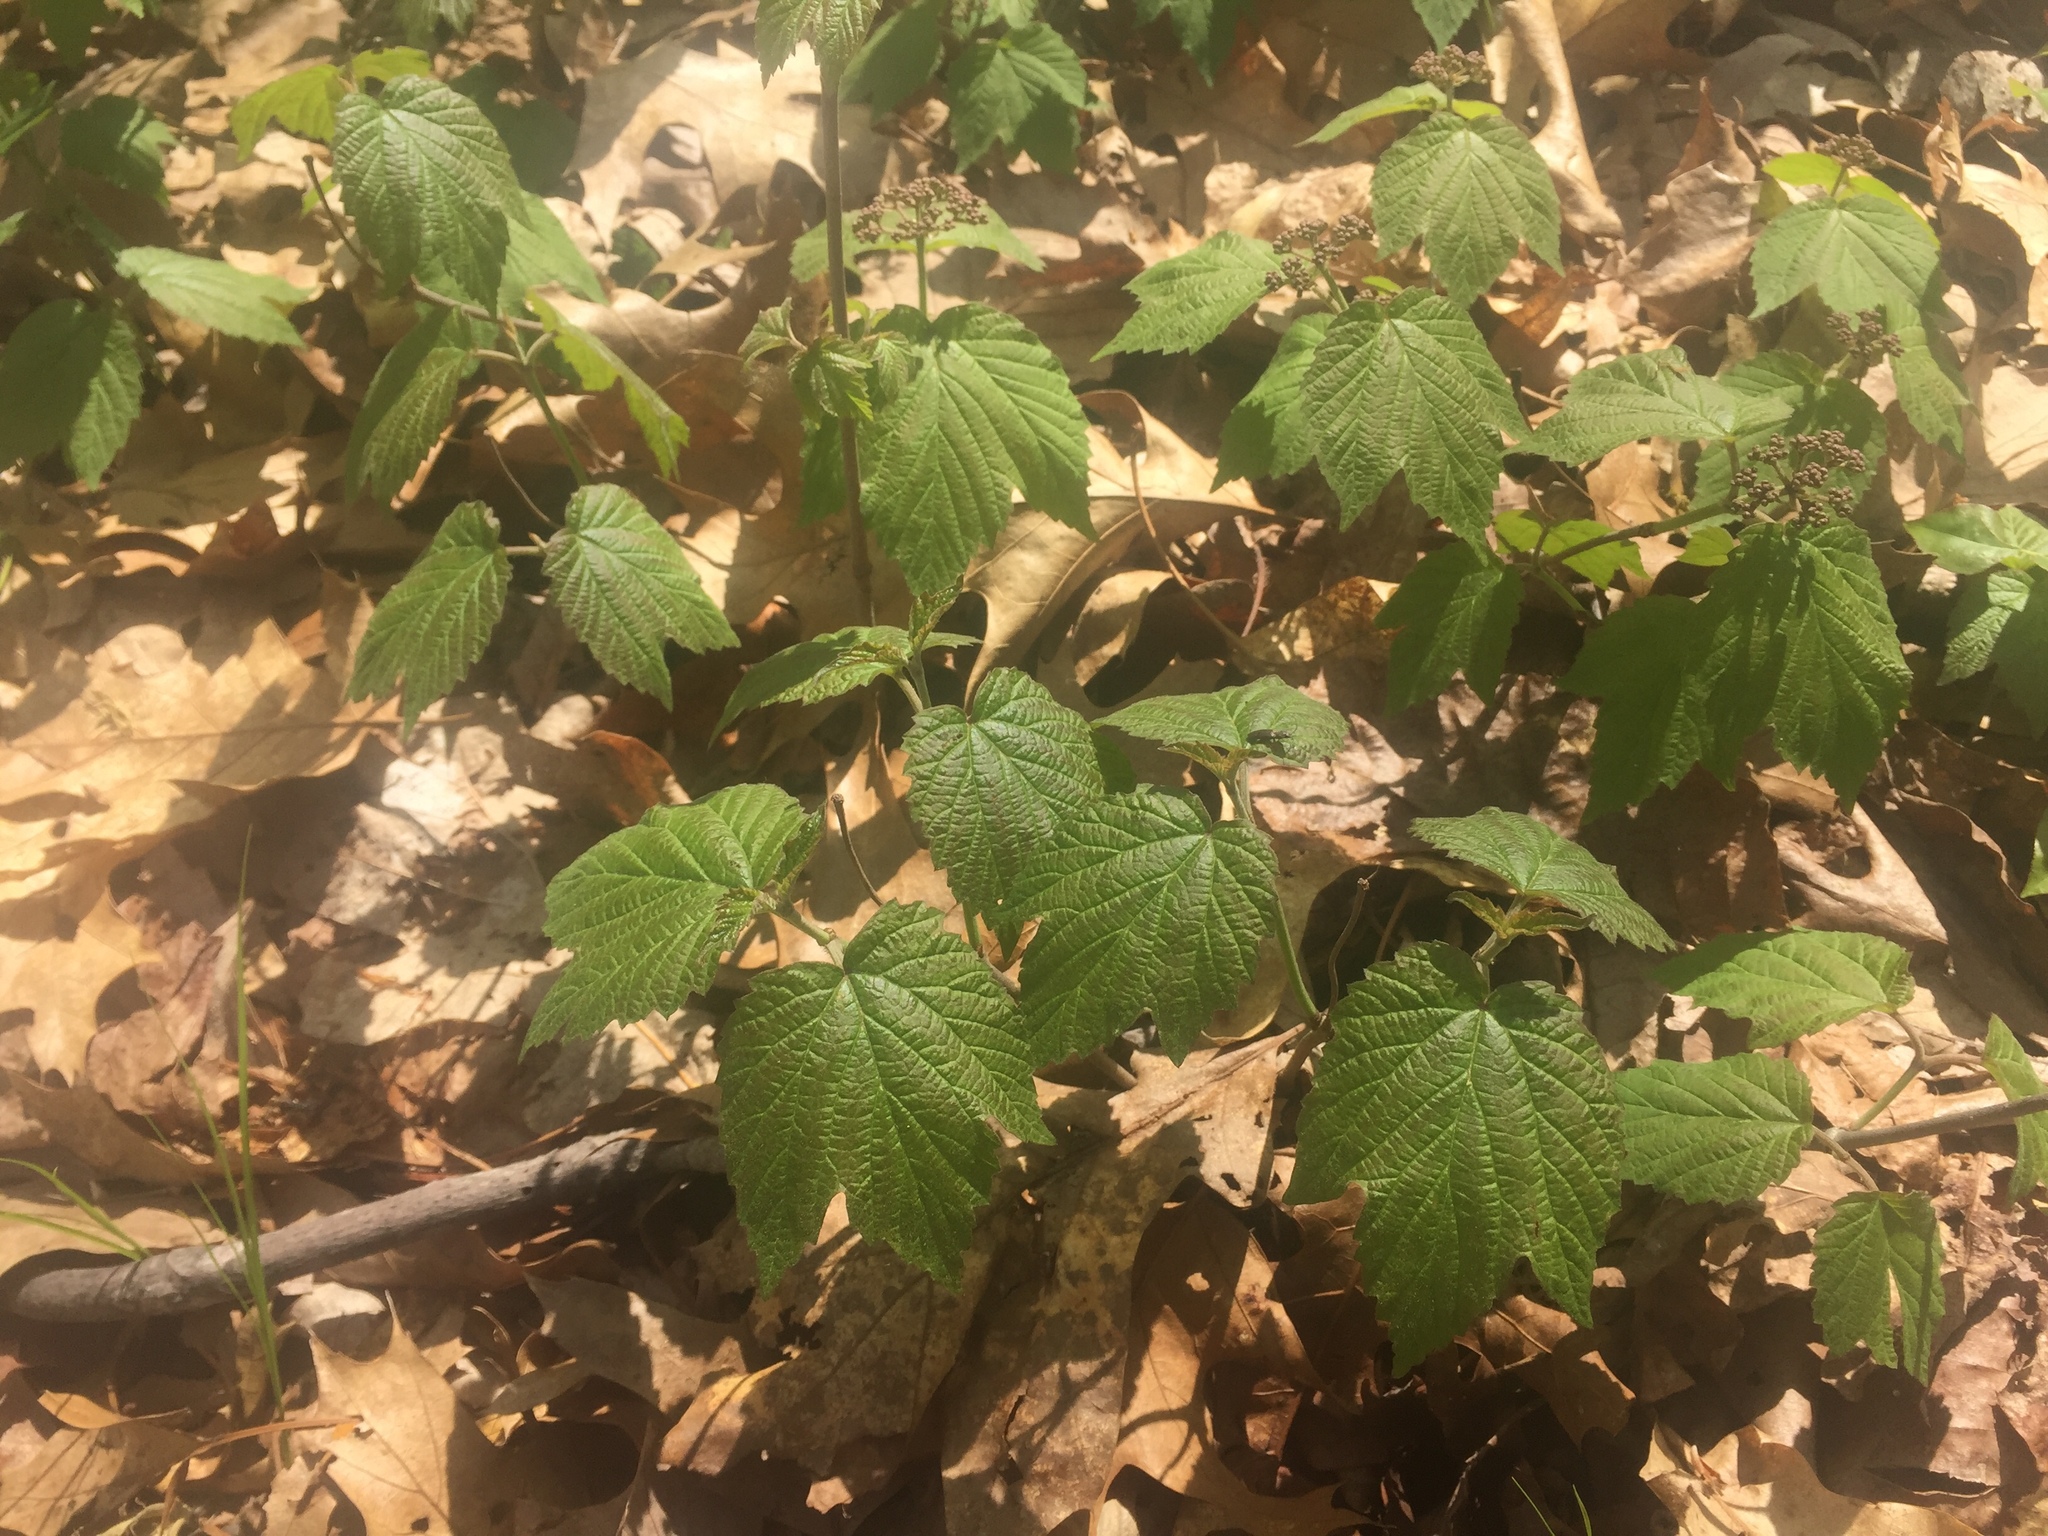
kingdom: Plantae
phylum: Tracheophyta
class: Magnoliopsida
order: Dipsacales
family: Viburnaceae
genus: Viburnum
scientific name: Viburnum acerifolium
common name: Dockmackie
